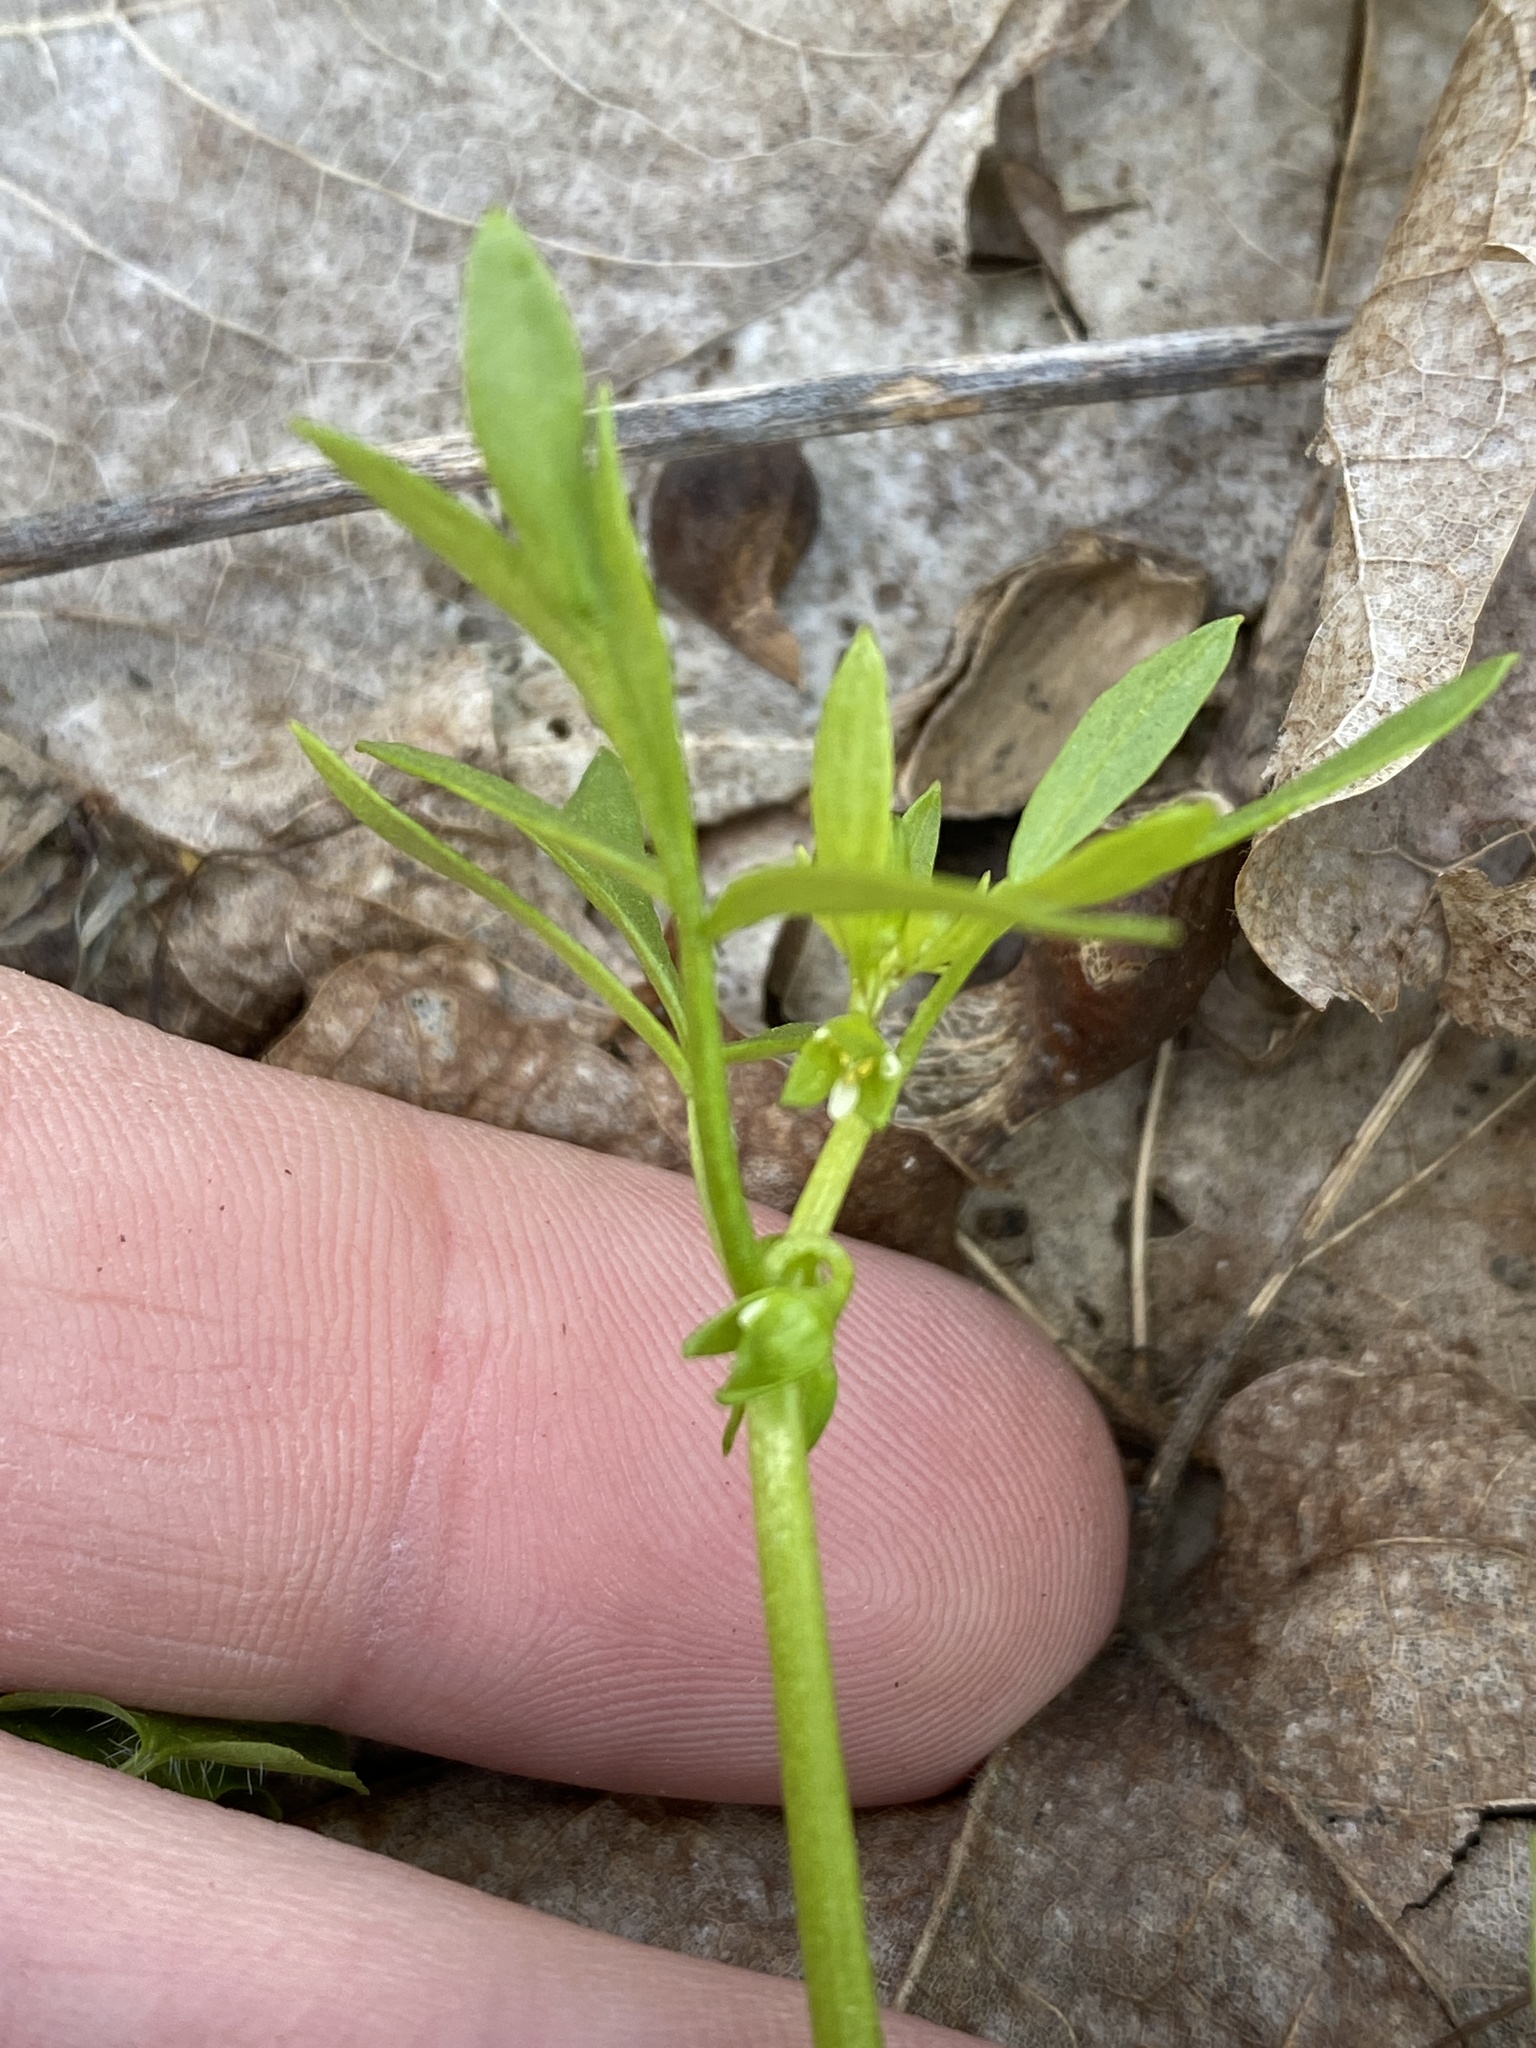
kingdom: Plantae
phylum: Tracheophyta
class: Magnoliopsida
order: Brassicales
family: Limnanthaceae
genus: Floerkea
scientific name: Floerkea proserpinacoides
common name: False mermaid
